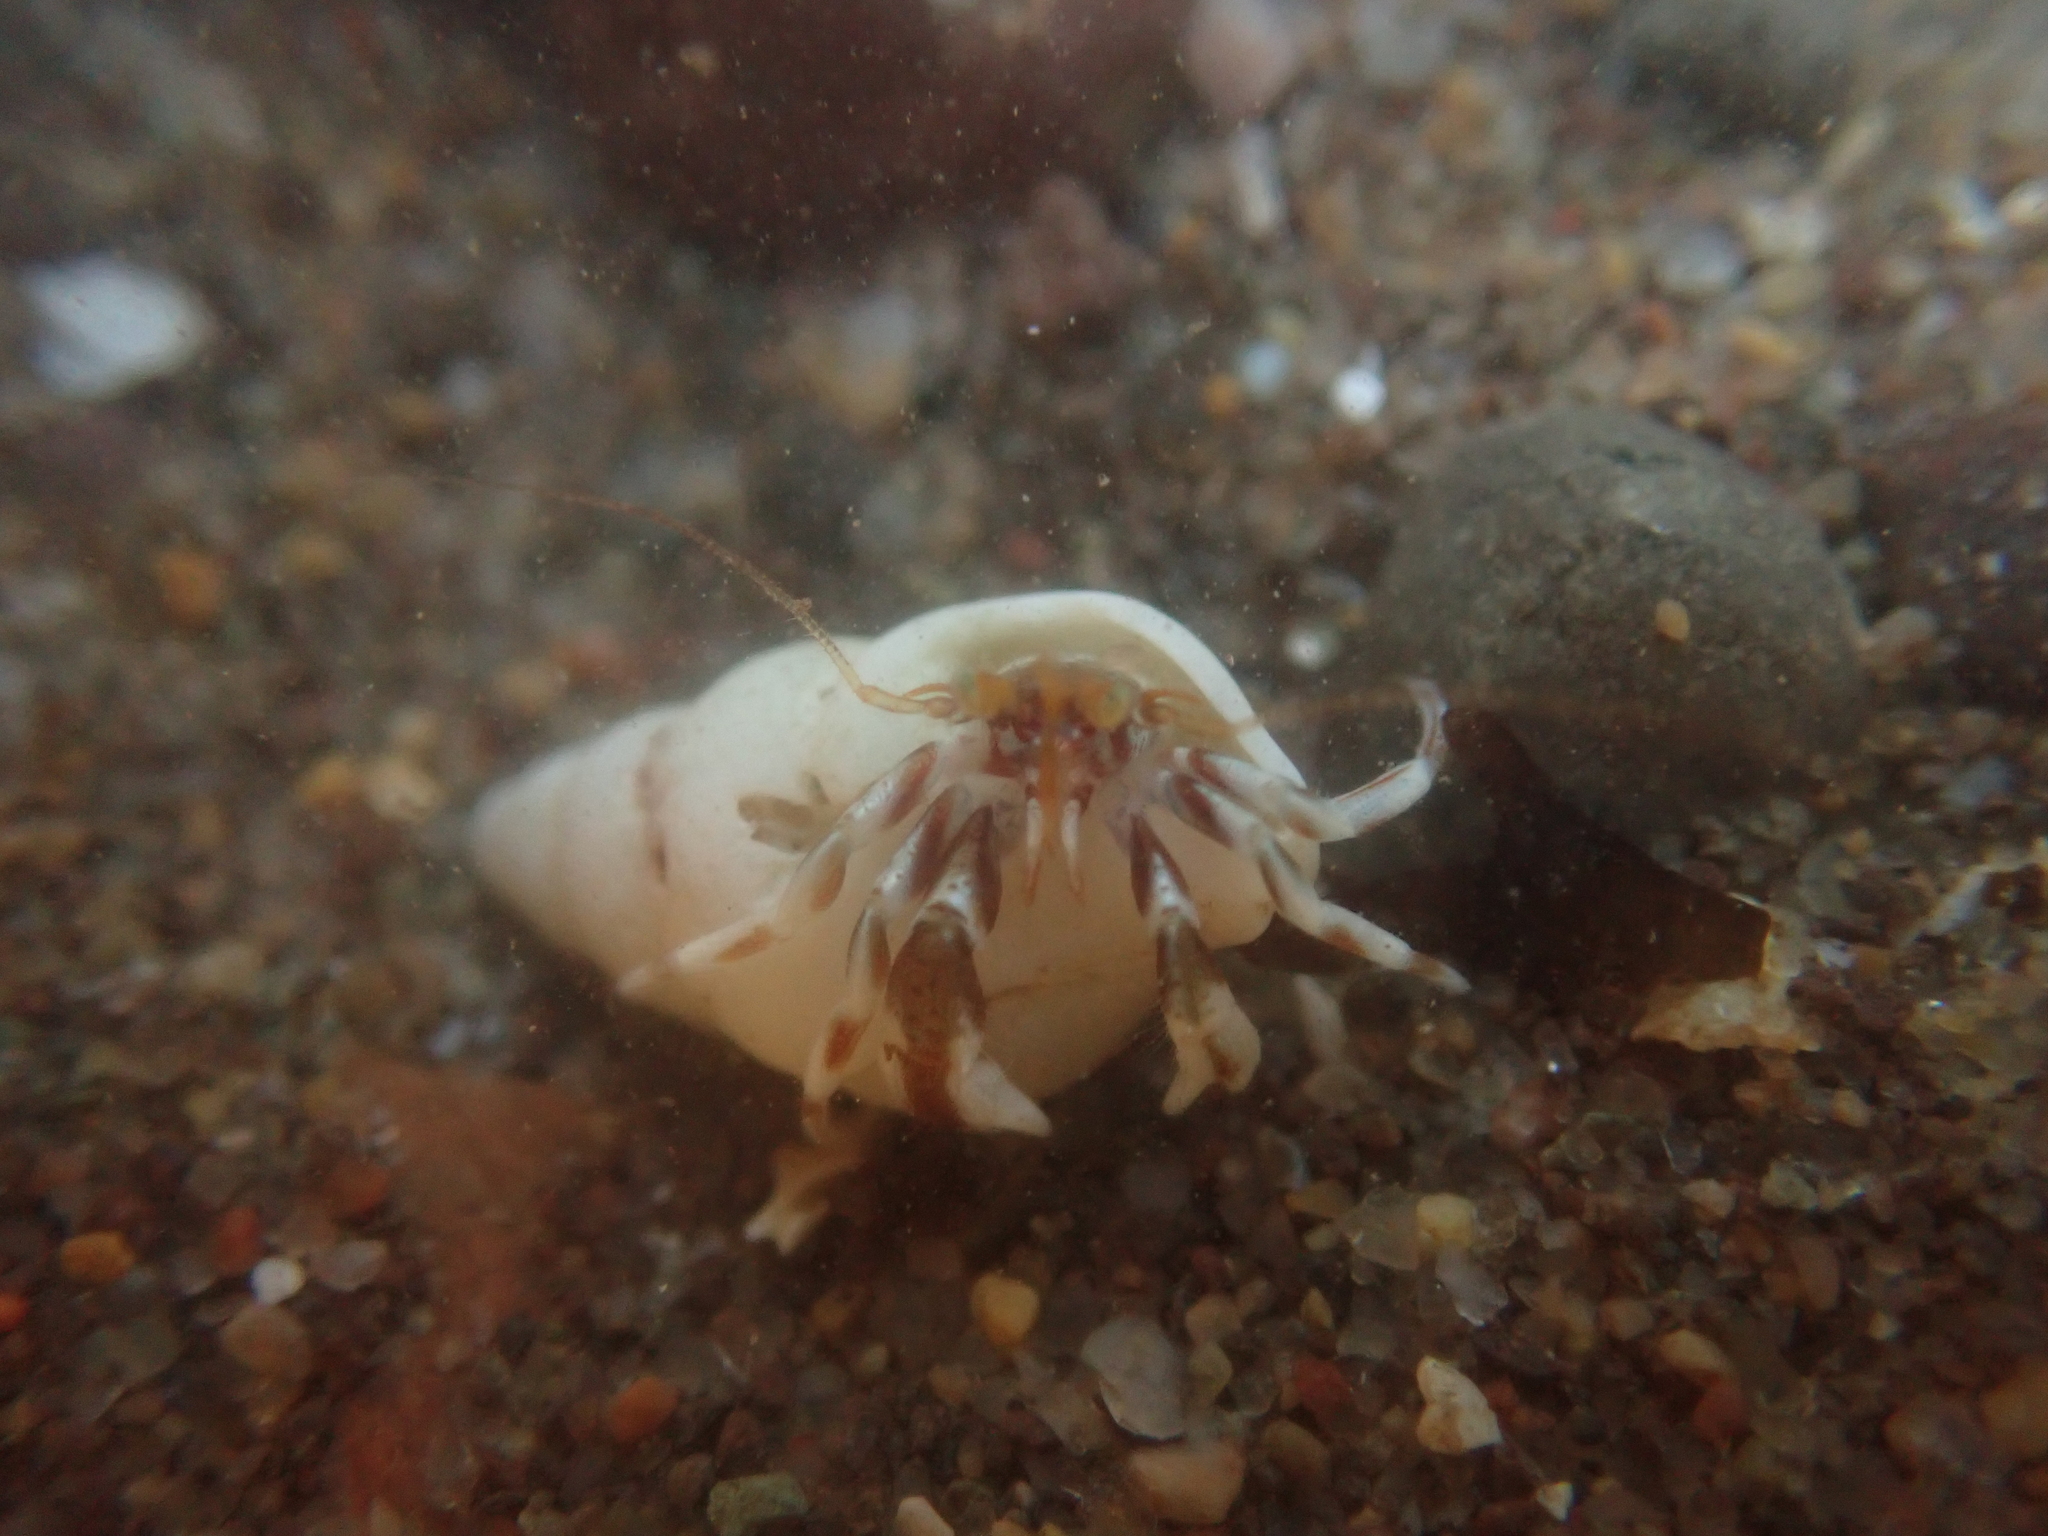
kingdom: Animalia
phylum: Mollusca
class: Gastropoda
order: Neogastropoda
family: Colidae
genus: Colus
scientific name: Colus stimpsoni
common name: Stimpson's colus
